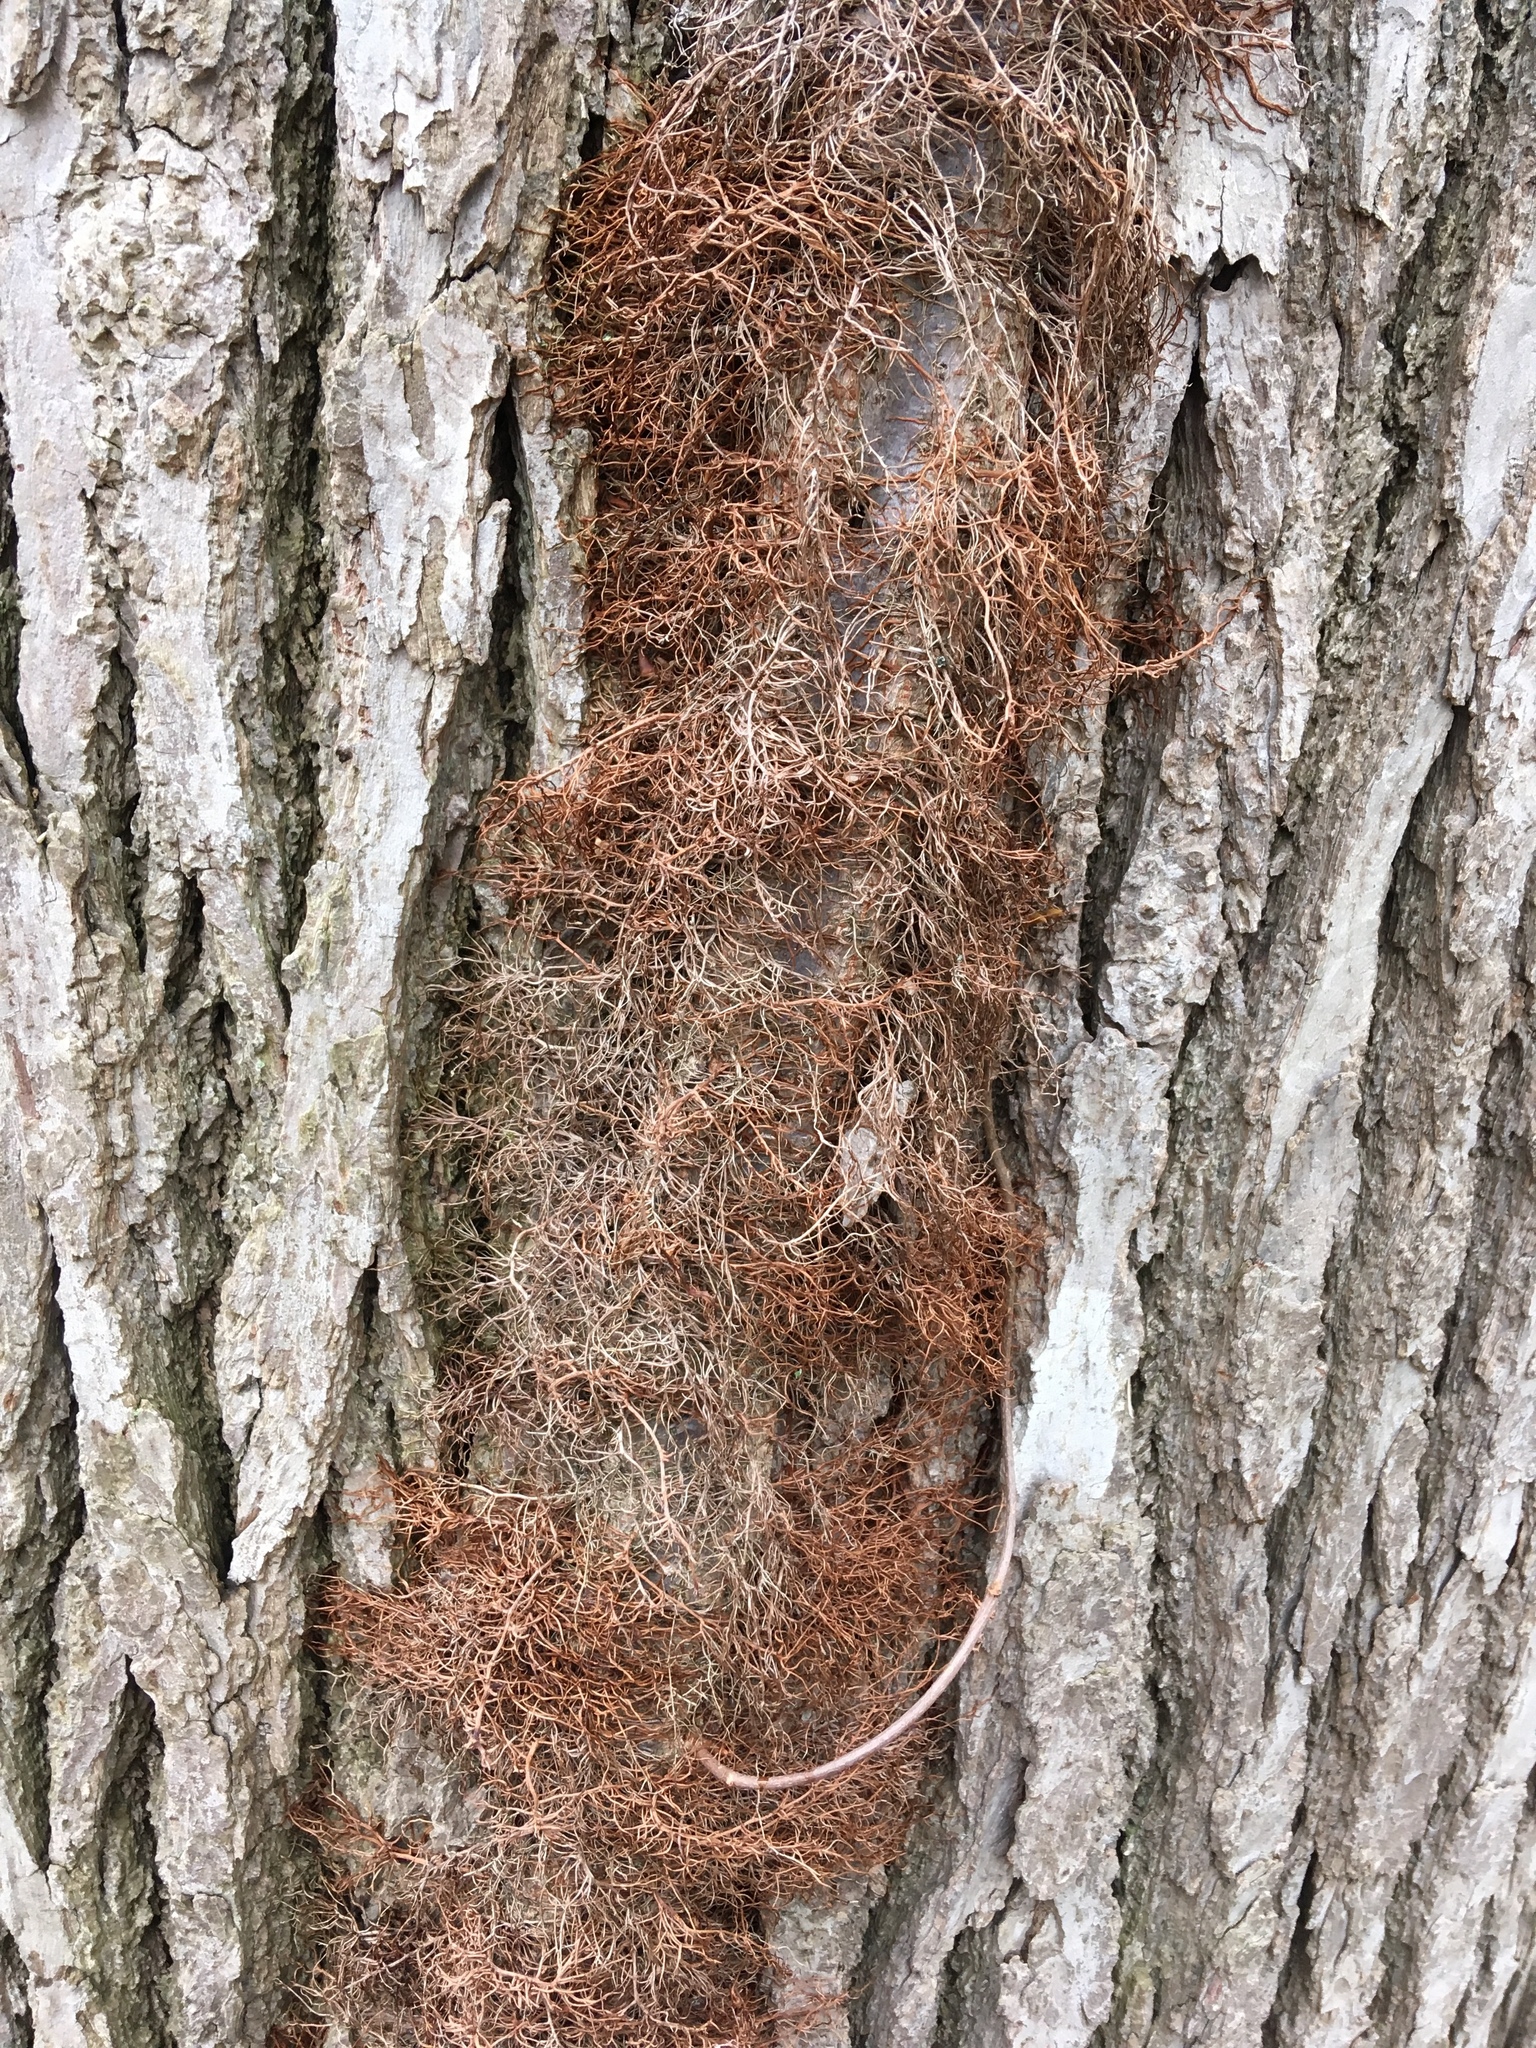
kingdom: Plantae
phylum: Tracheophyta
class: Magnoliopsida
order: Sapindales
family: Anacardiaceae
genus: Toxicodendron
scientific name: Toxicodendron radicans
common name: Poison ivy
